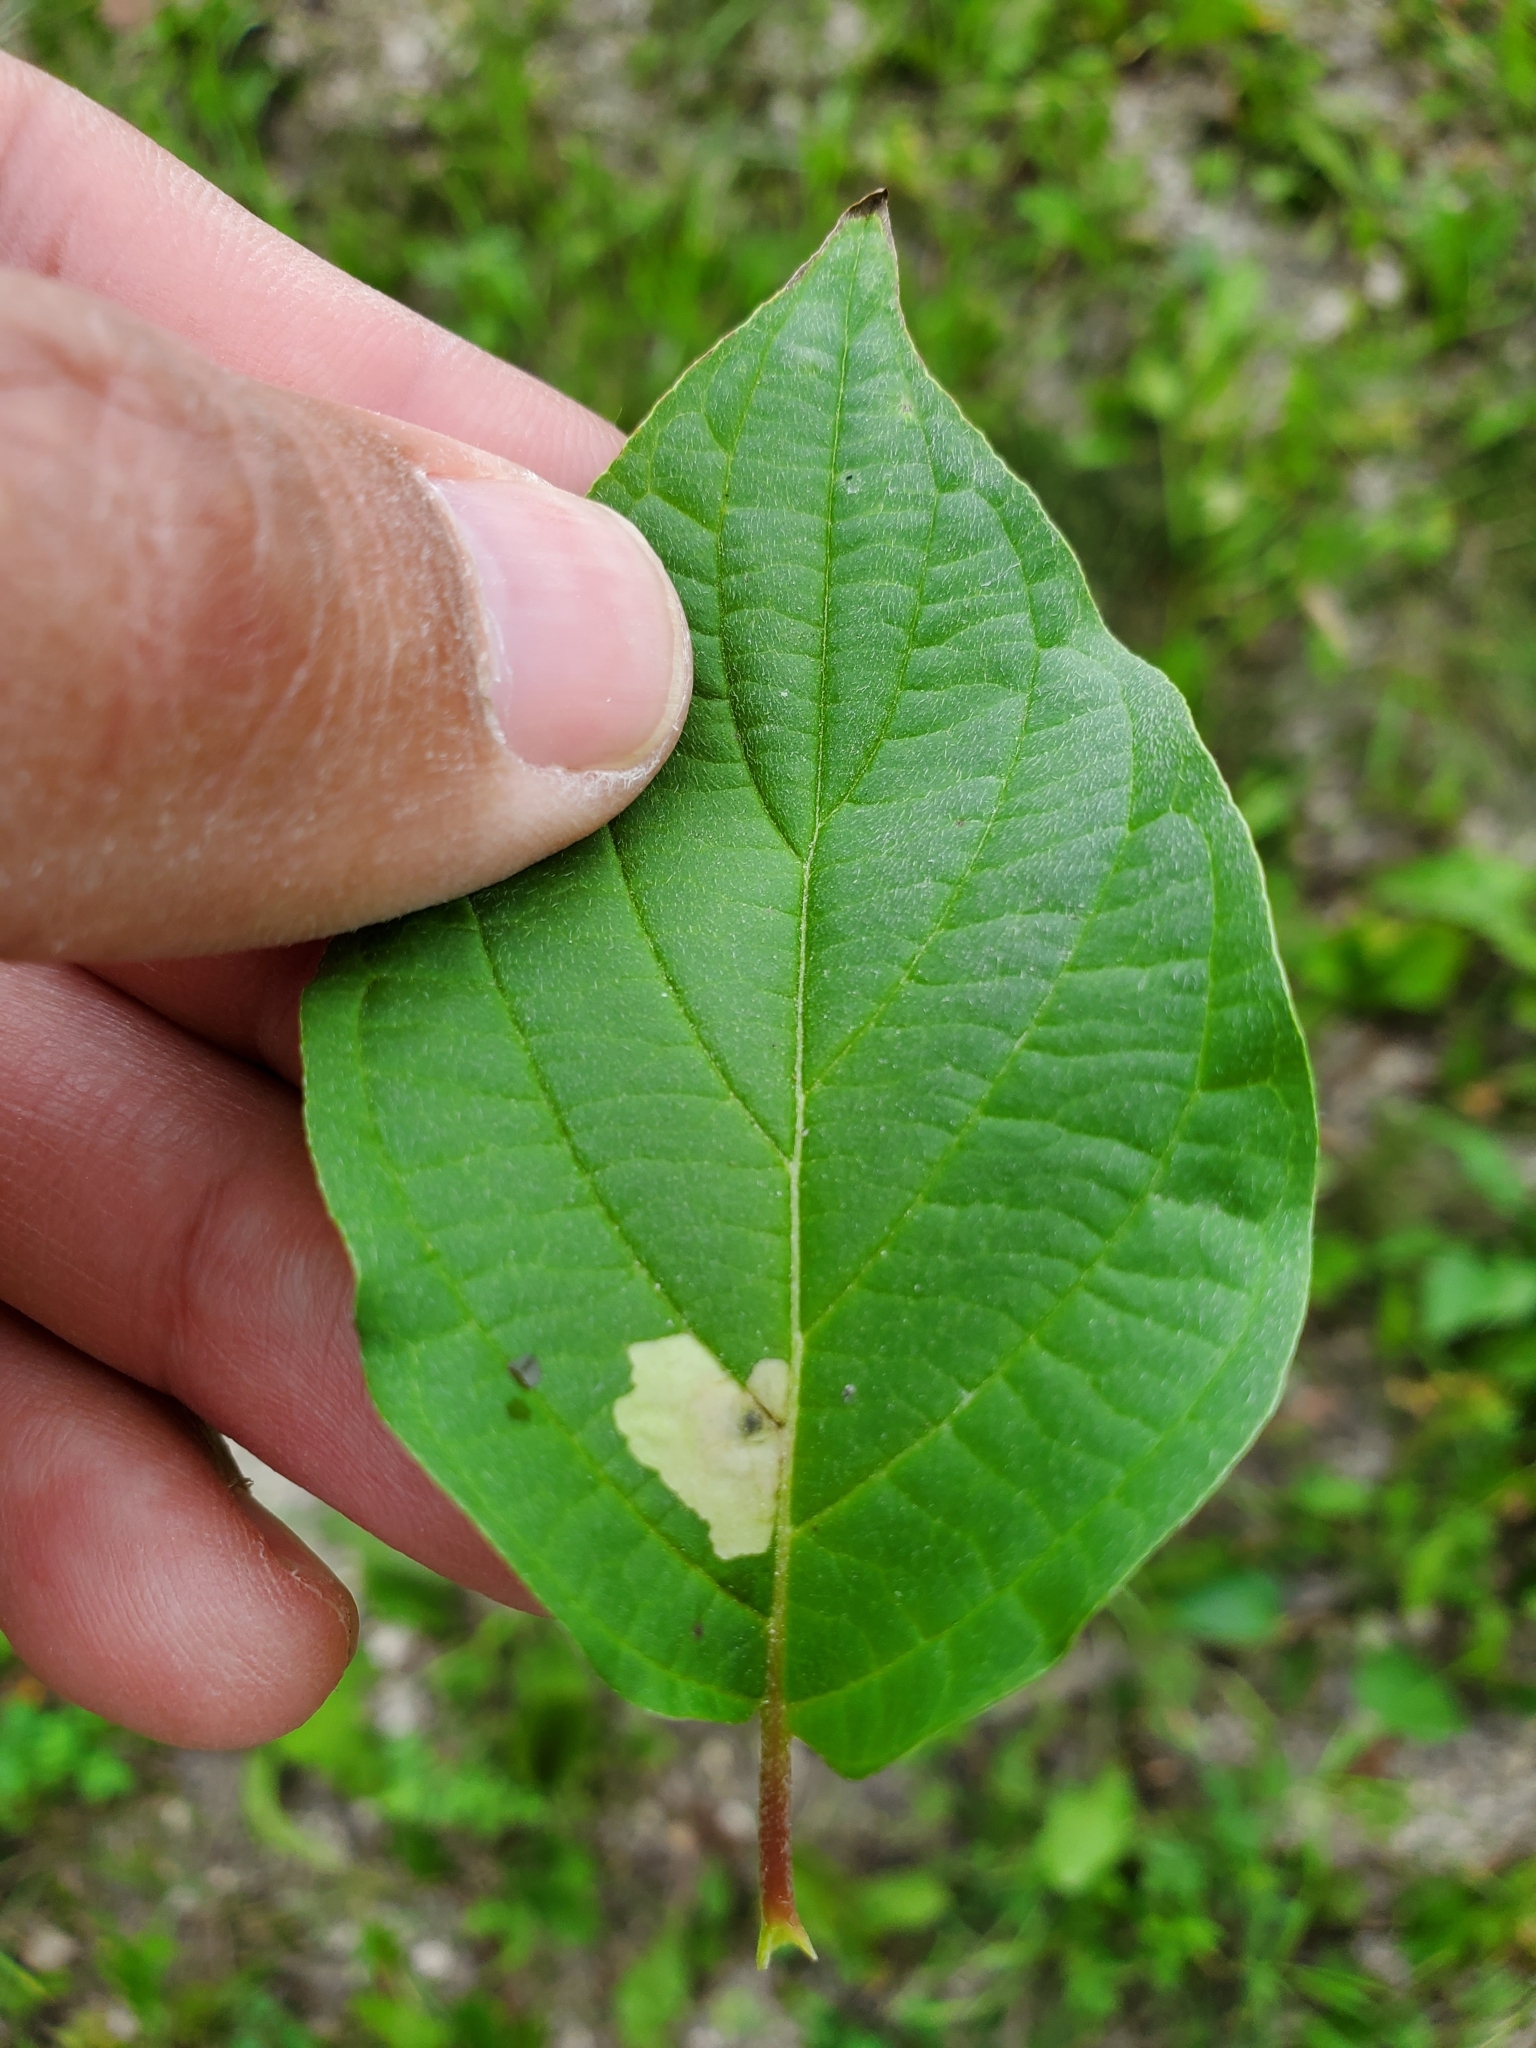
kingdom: Animalia
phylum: Arthropoda
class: Insecta
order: Lepidoptera
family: Coleophoridae
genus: Coleophora
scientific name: Coleophora cornella
